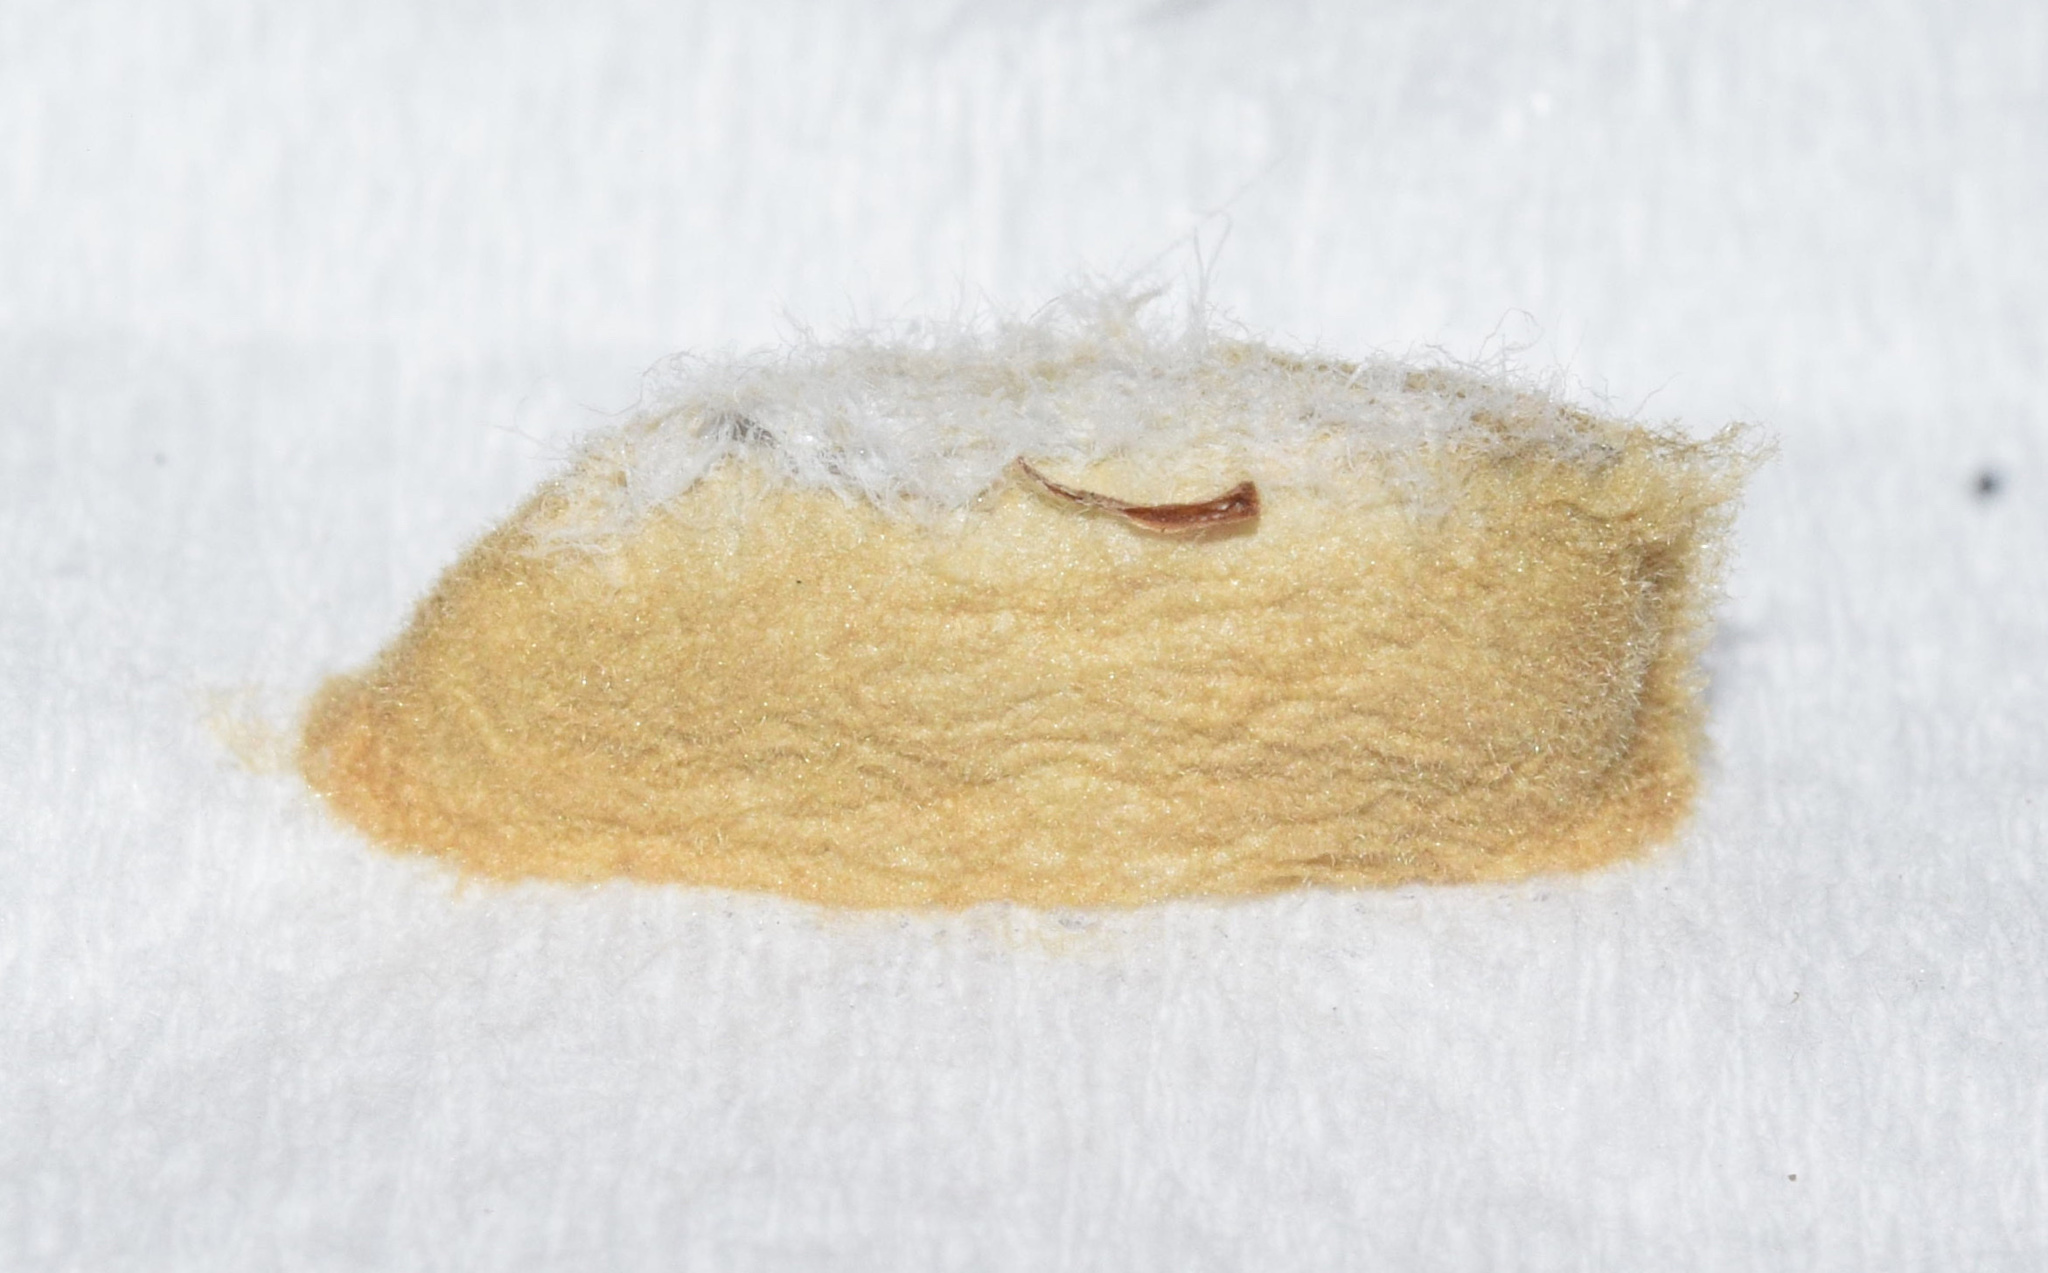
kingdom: Animalia
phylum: Arthropoda
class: Insecta
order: Lepidoptera
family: Nolidae
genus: Earias
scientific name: Earias biplaga
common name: Spiny bollworm
